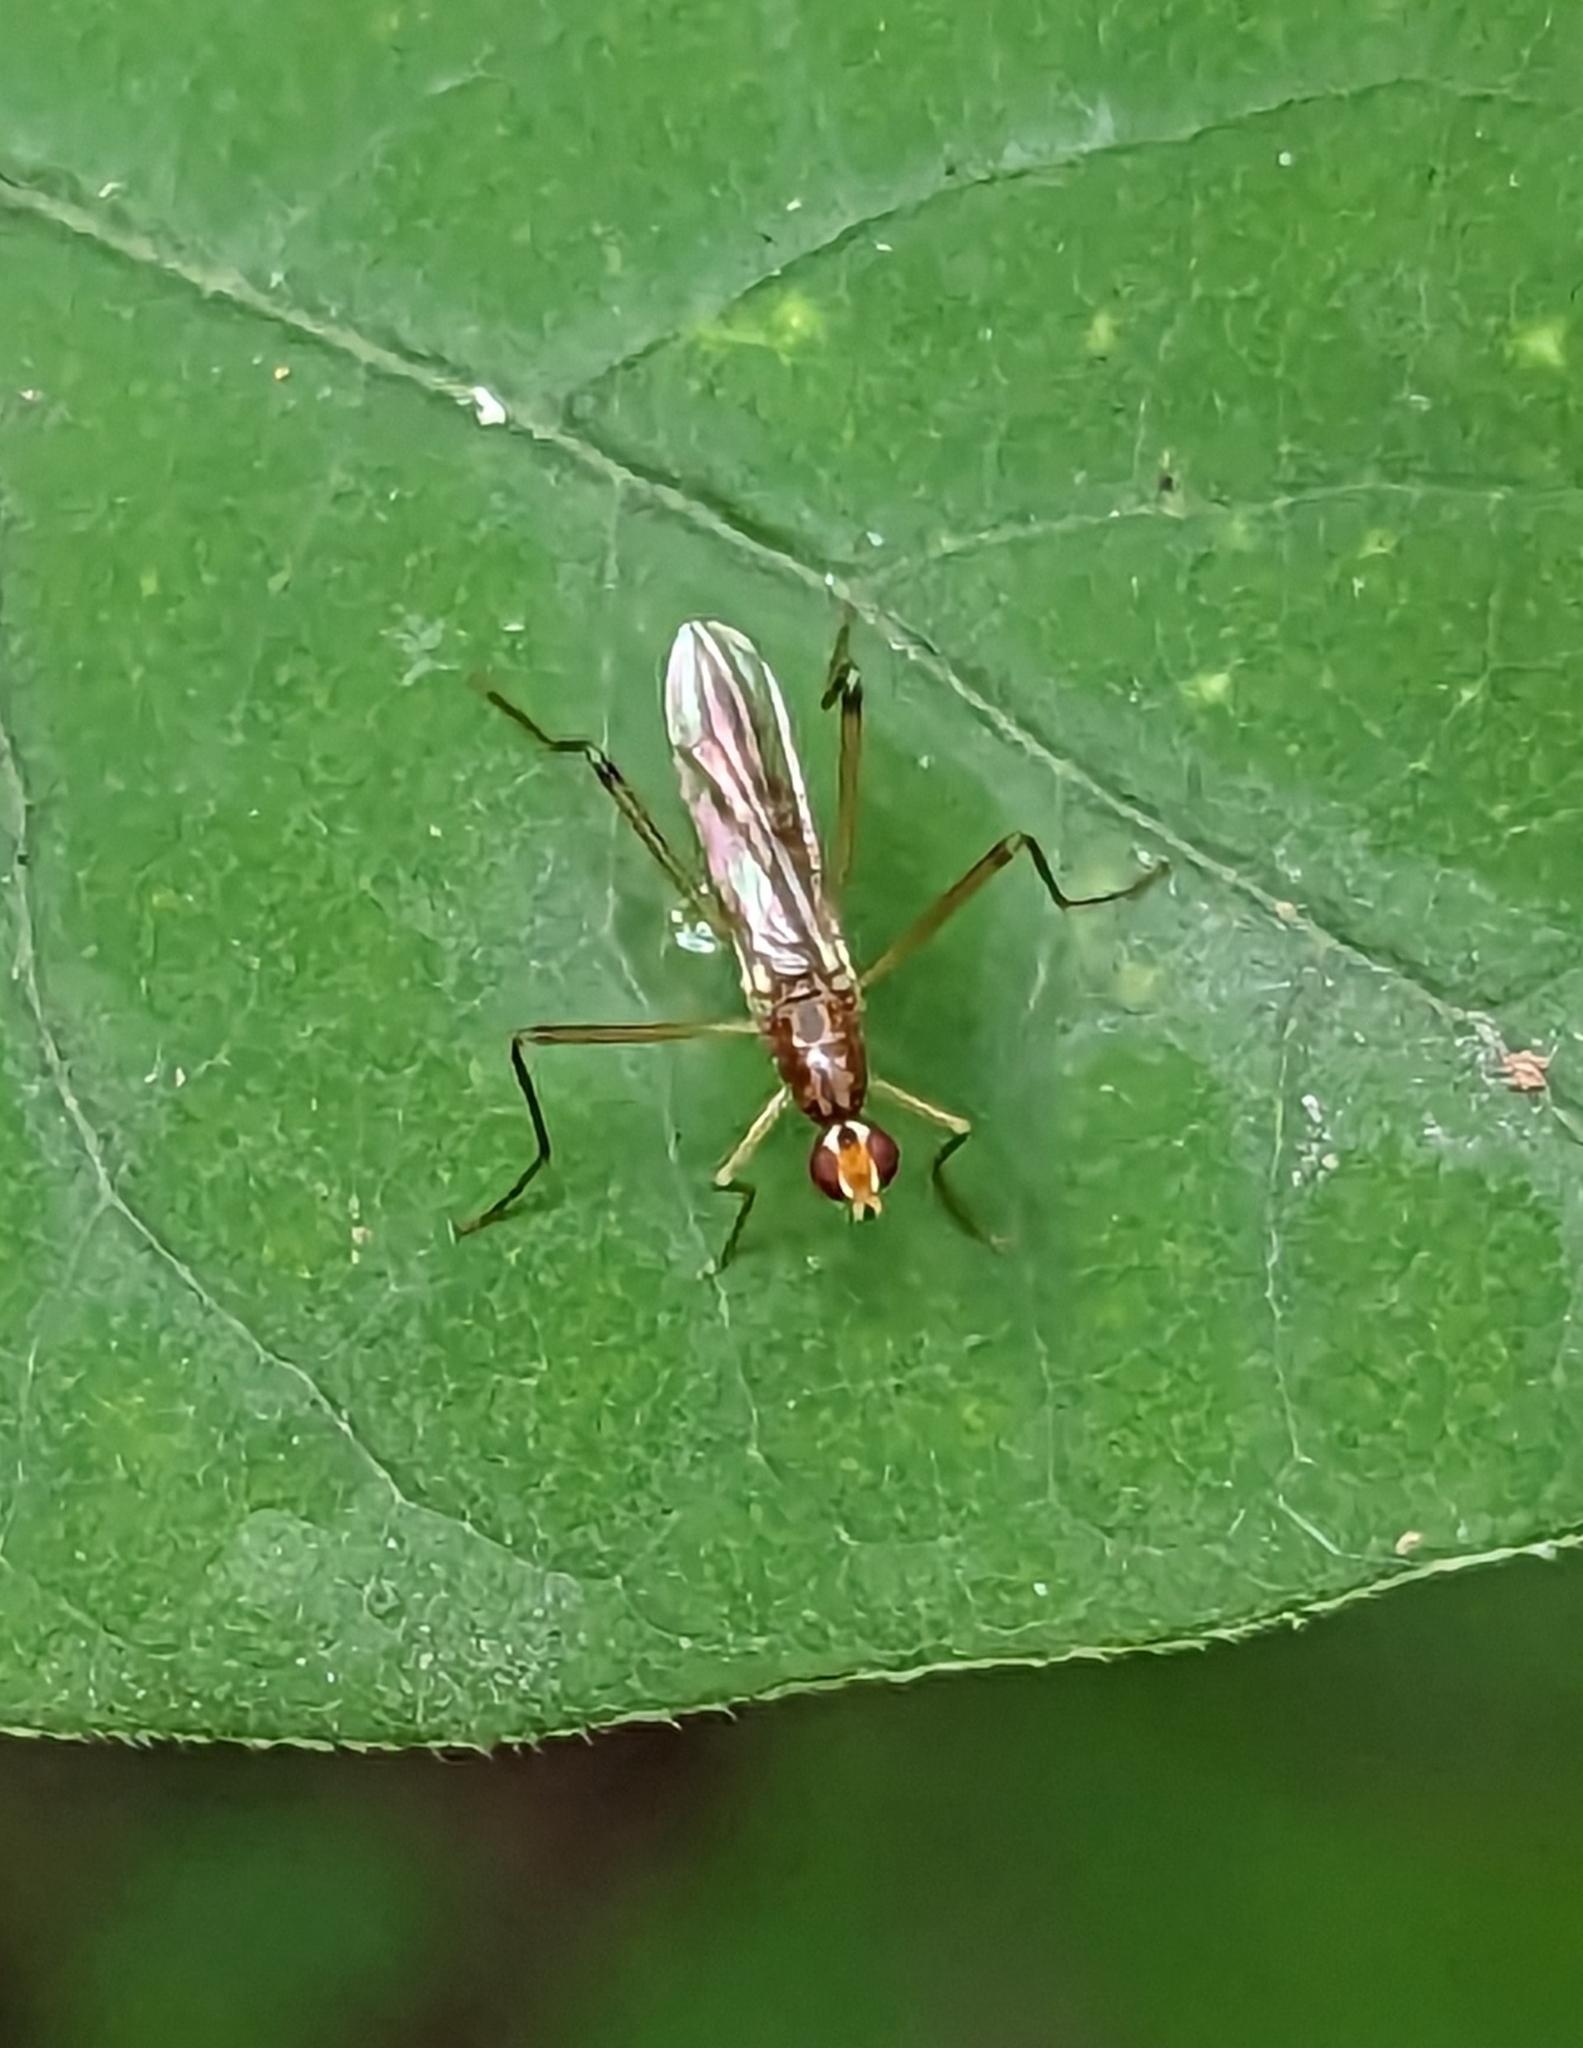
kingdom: Animalia
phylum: Arthropoda
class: Insecta
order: Diptera
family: Micropezidae
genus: Compsobata
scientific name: Compsobata univitta
